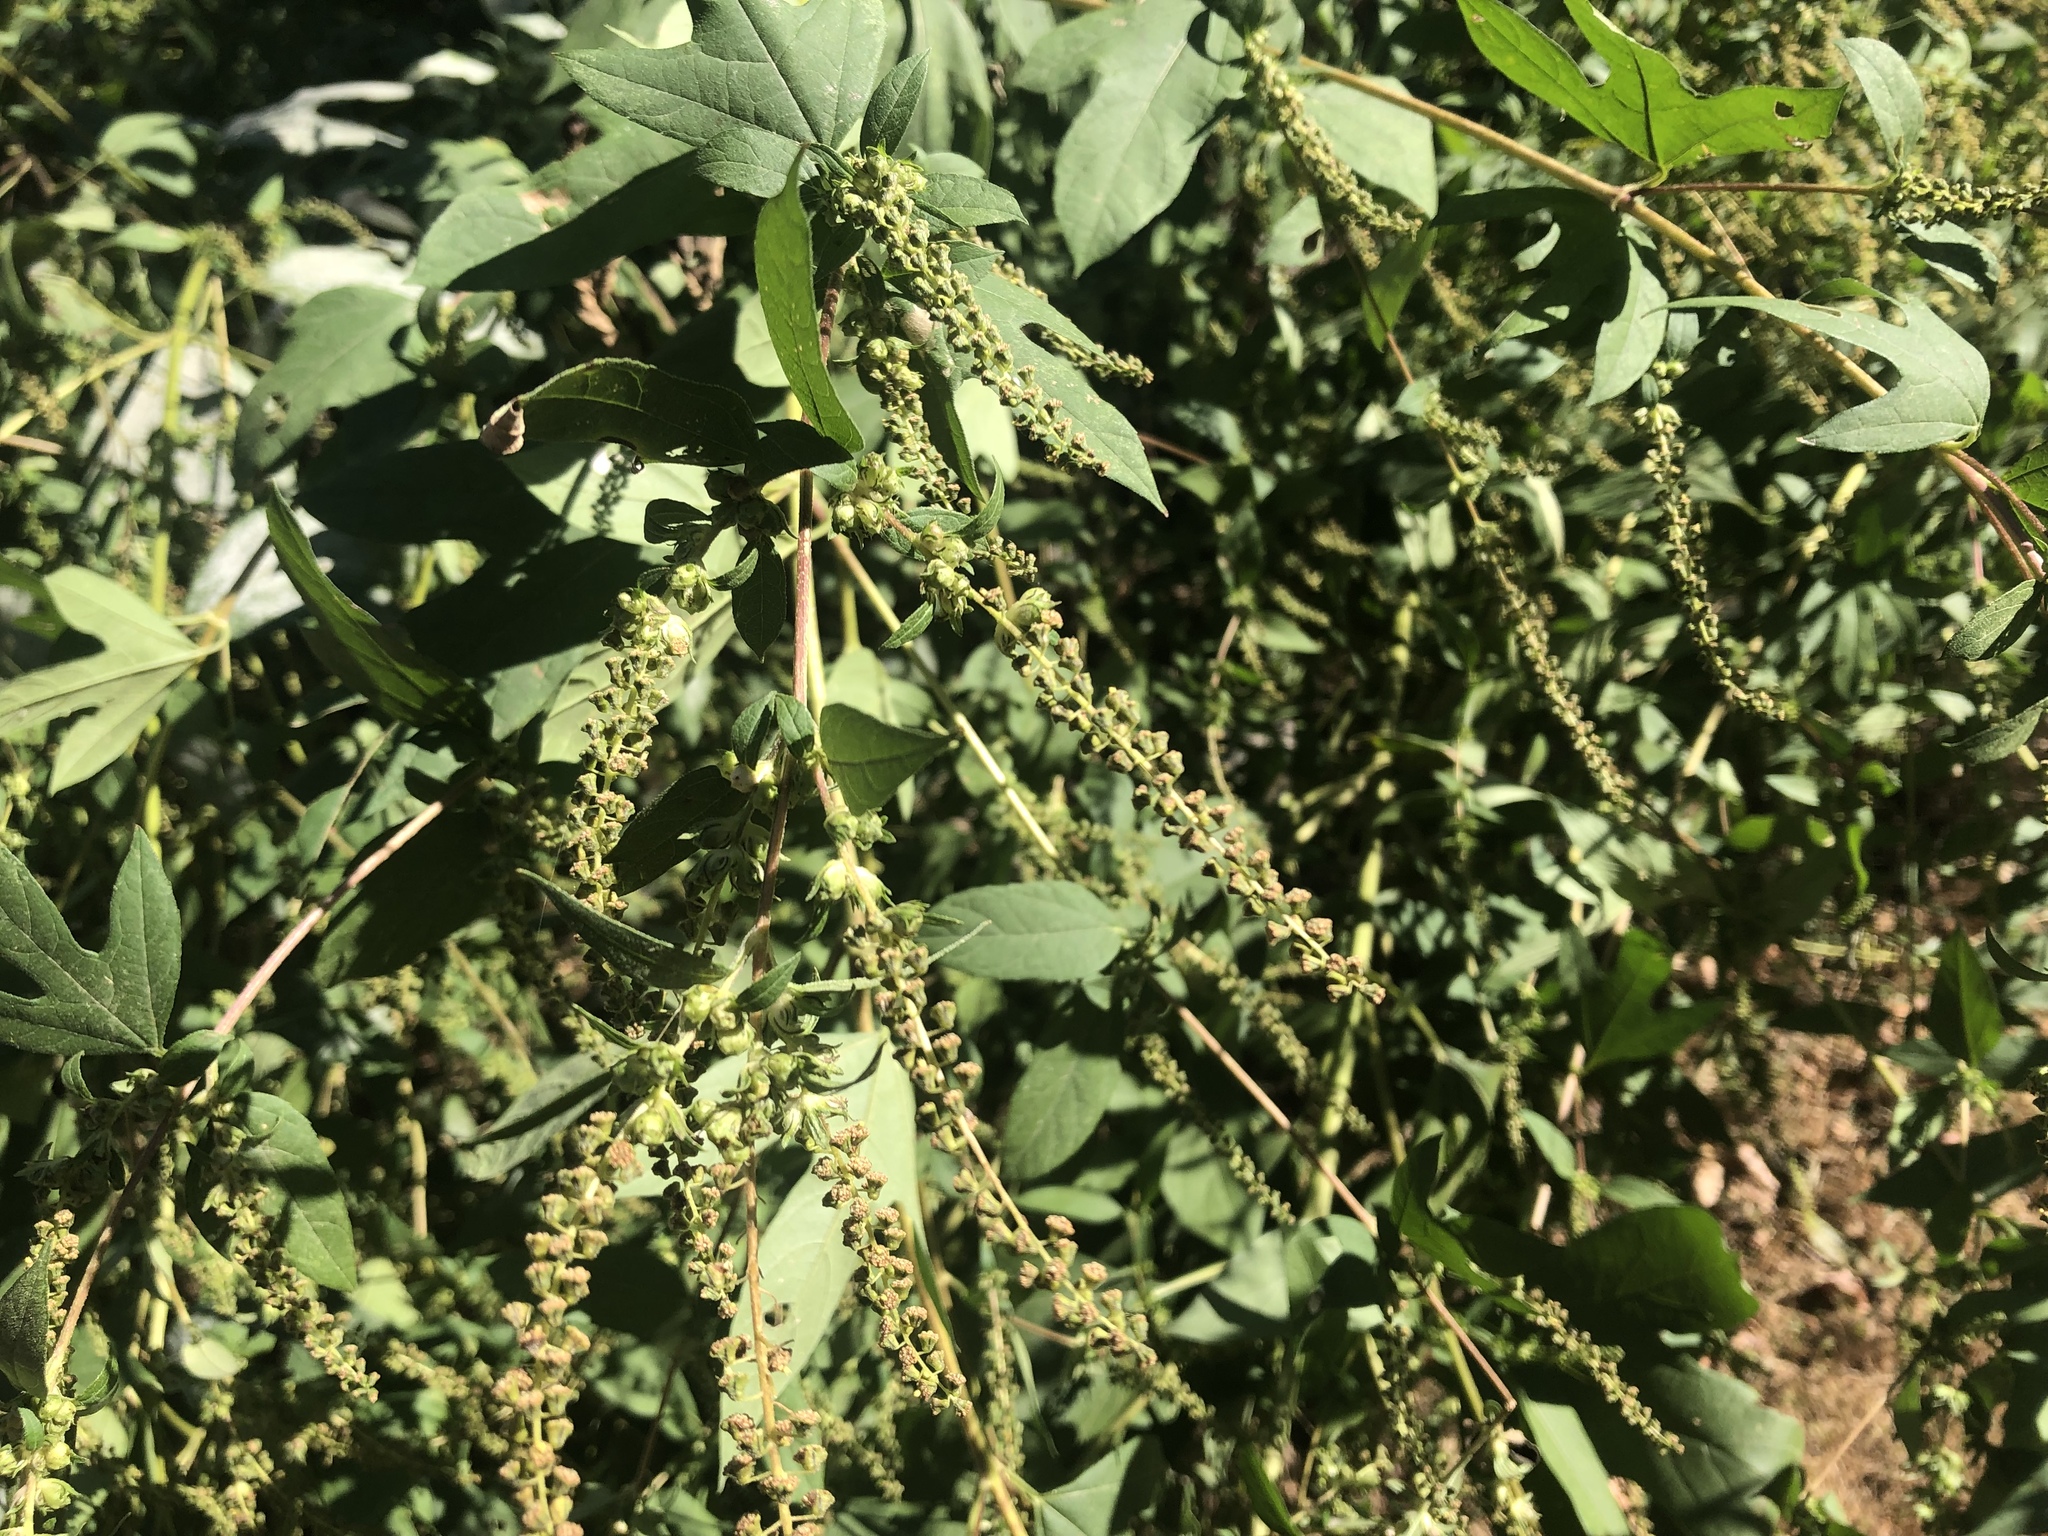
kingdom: Plantae
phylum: Tracheophyta
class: Magnoliopsida
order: Asterales
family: Asteraceae
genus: Ambrosia
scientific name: Ambrosia trifida
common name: Giant ragweed
